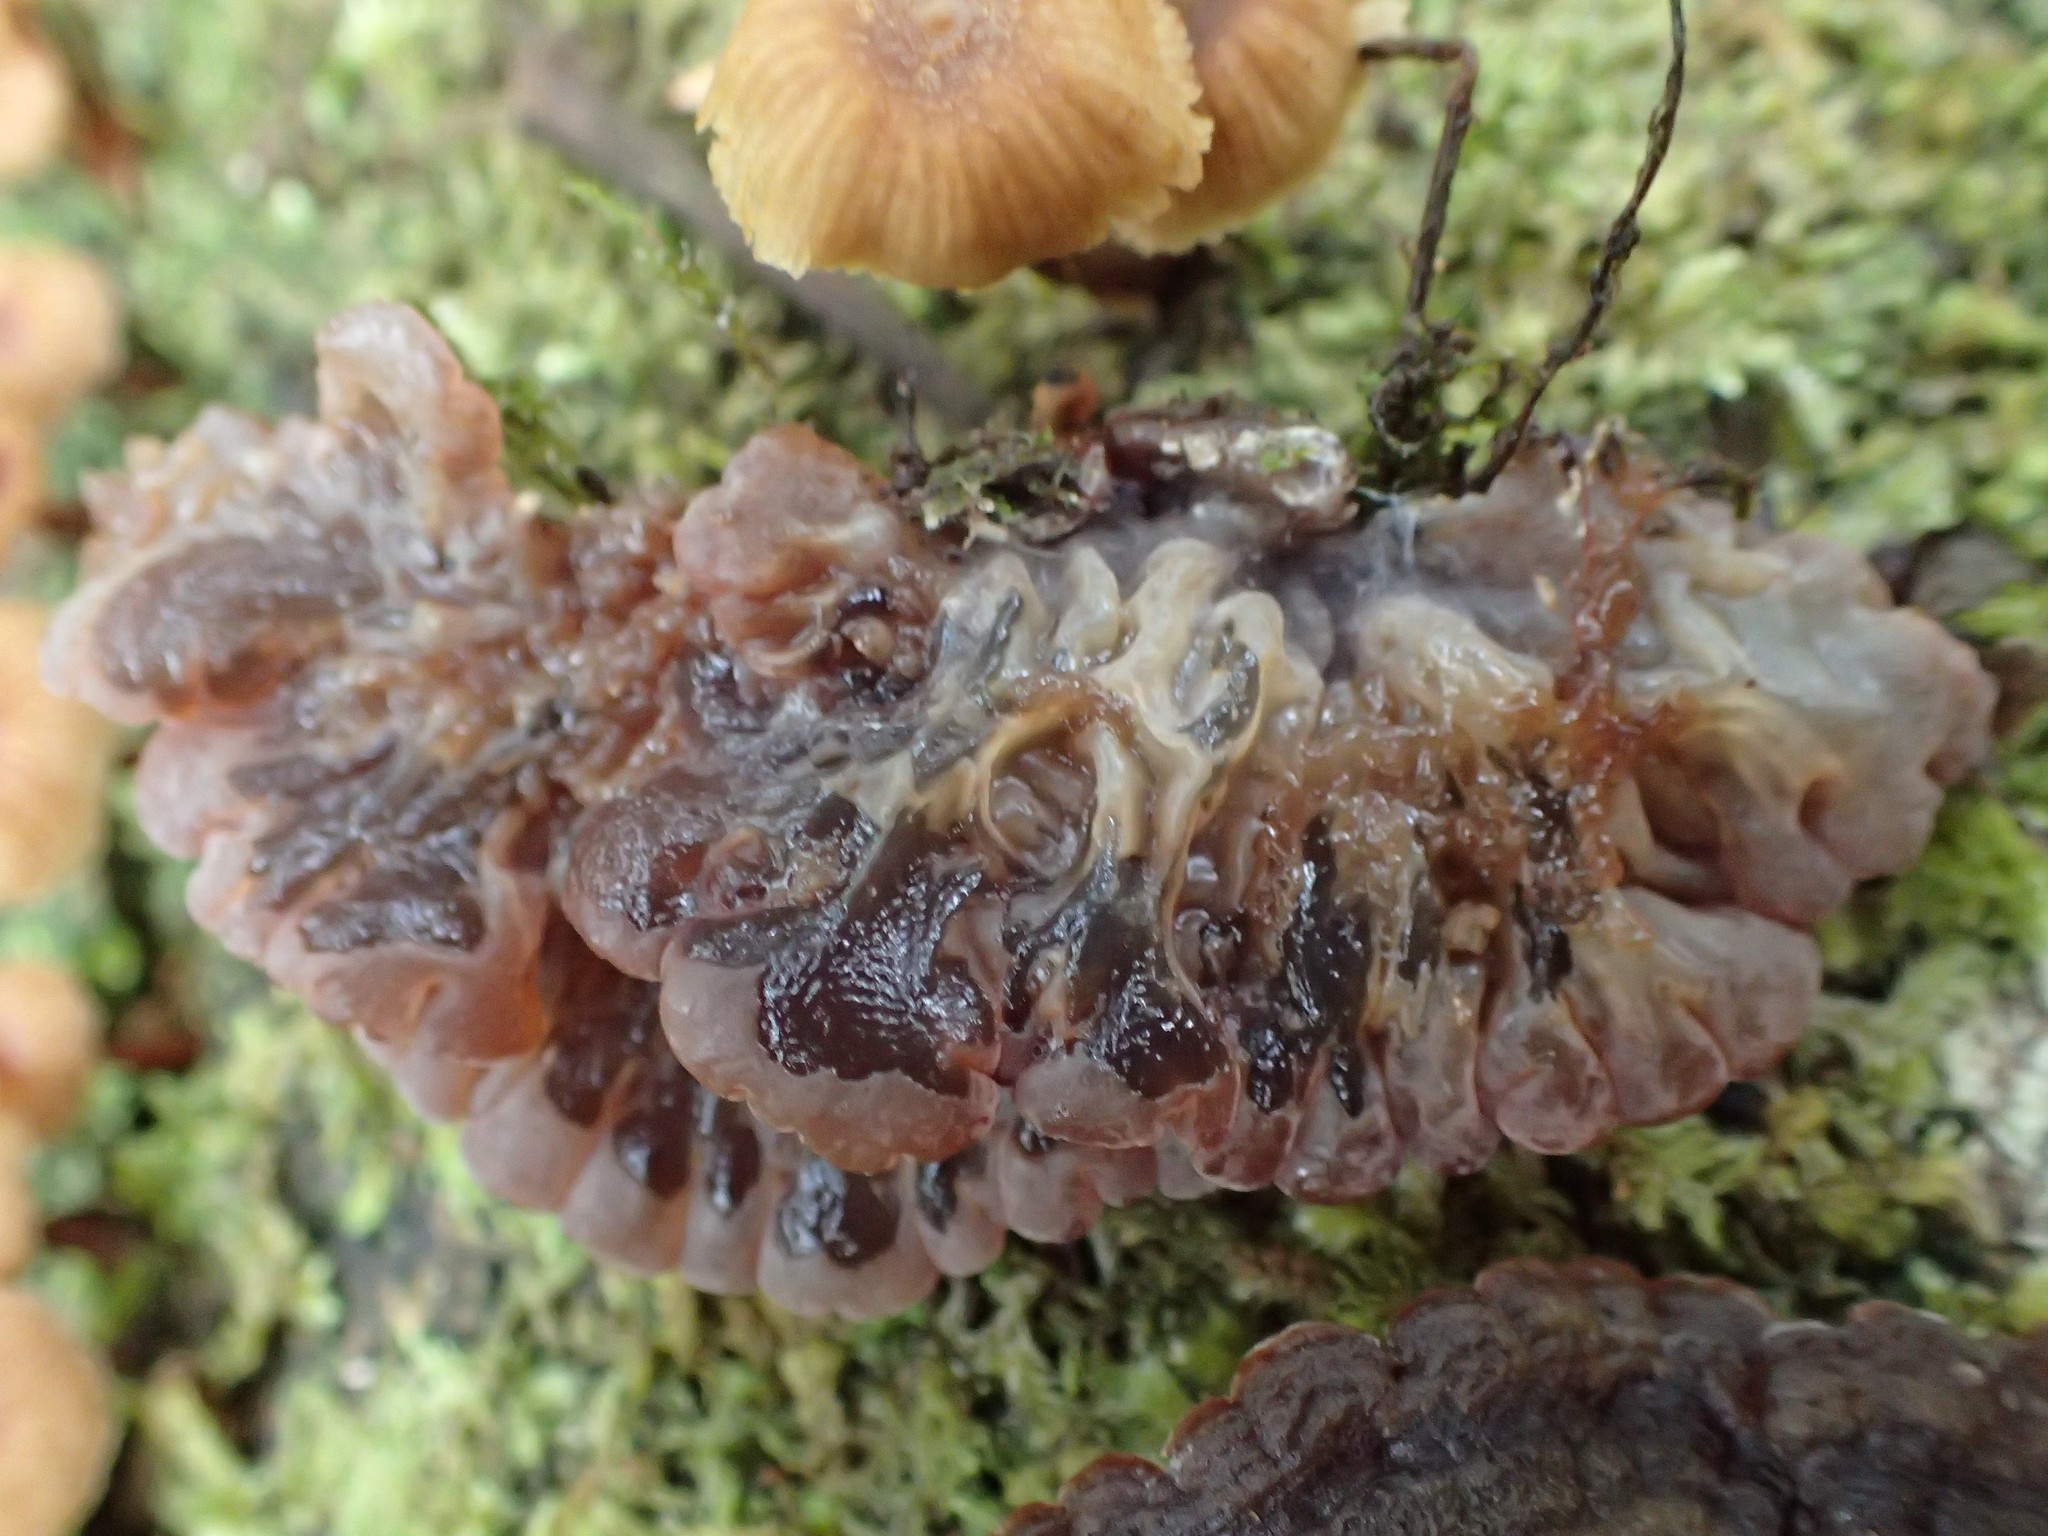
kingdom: Fungi
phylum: Basidiomycota
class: Agaricomycetes
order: Auriculariales
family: Auriculariaceae
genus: Auricularia
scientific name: Auricularia brasiliana
